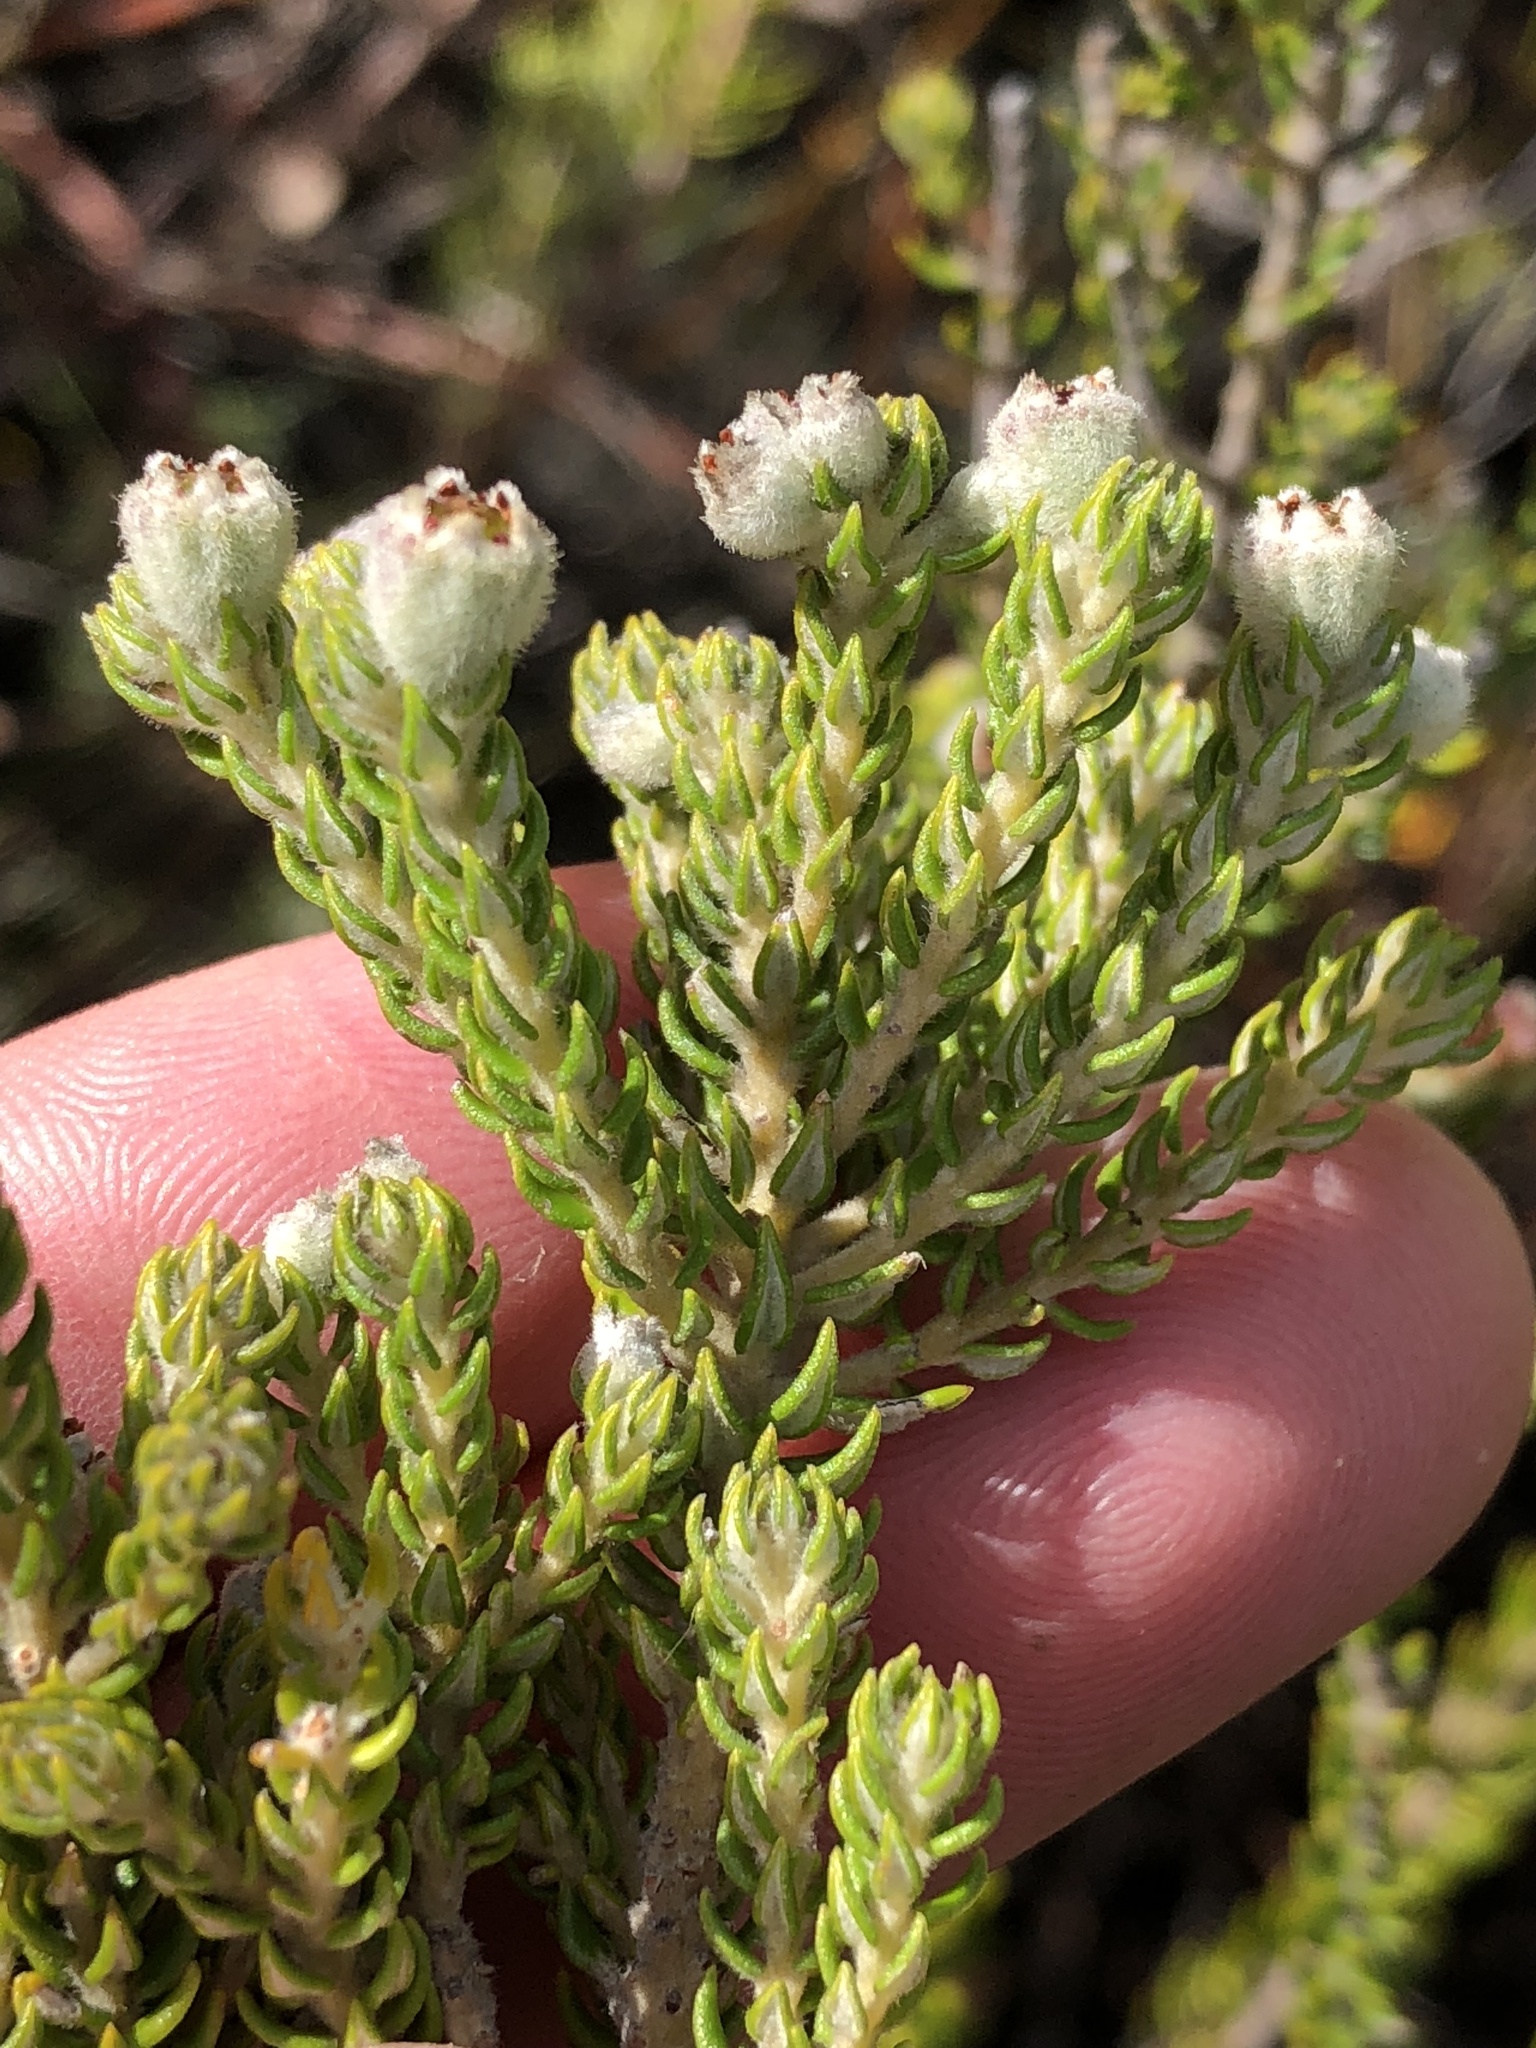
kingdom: Plantae
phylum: Tracheophyta
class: Magnoliopsida
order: Rosales
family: Rhamnaceae
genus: Phylica
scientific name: Phylica purpurea
